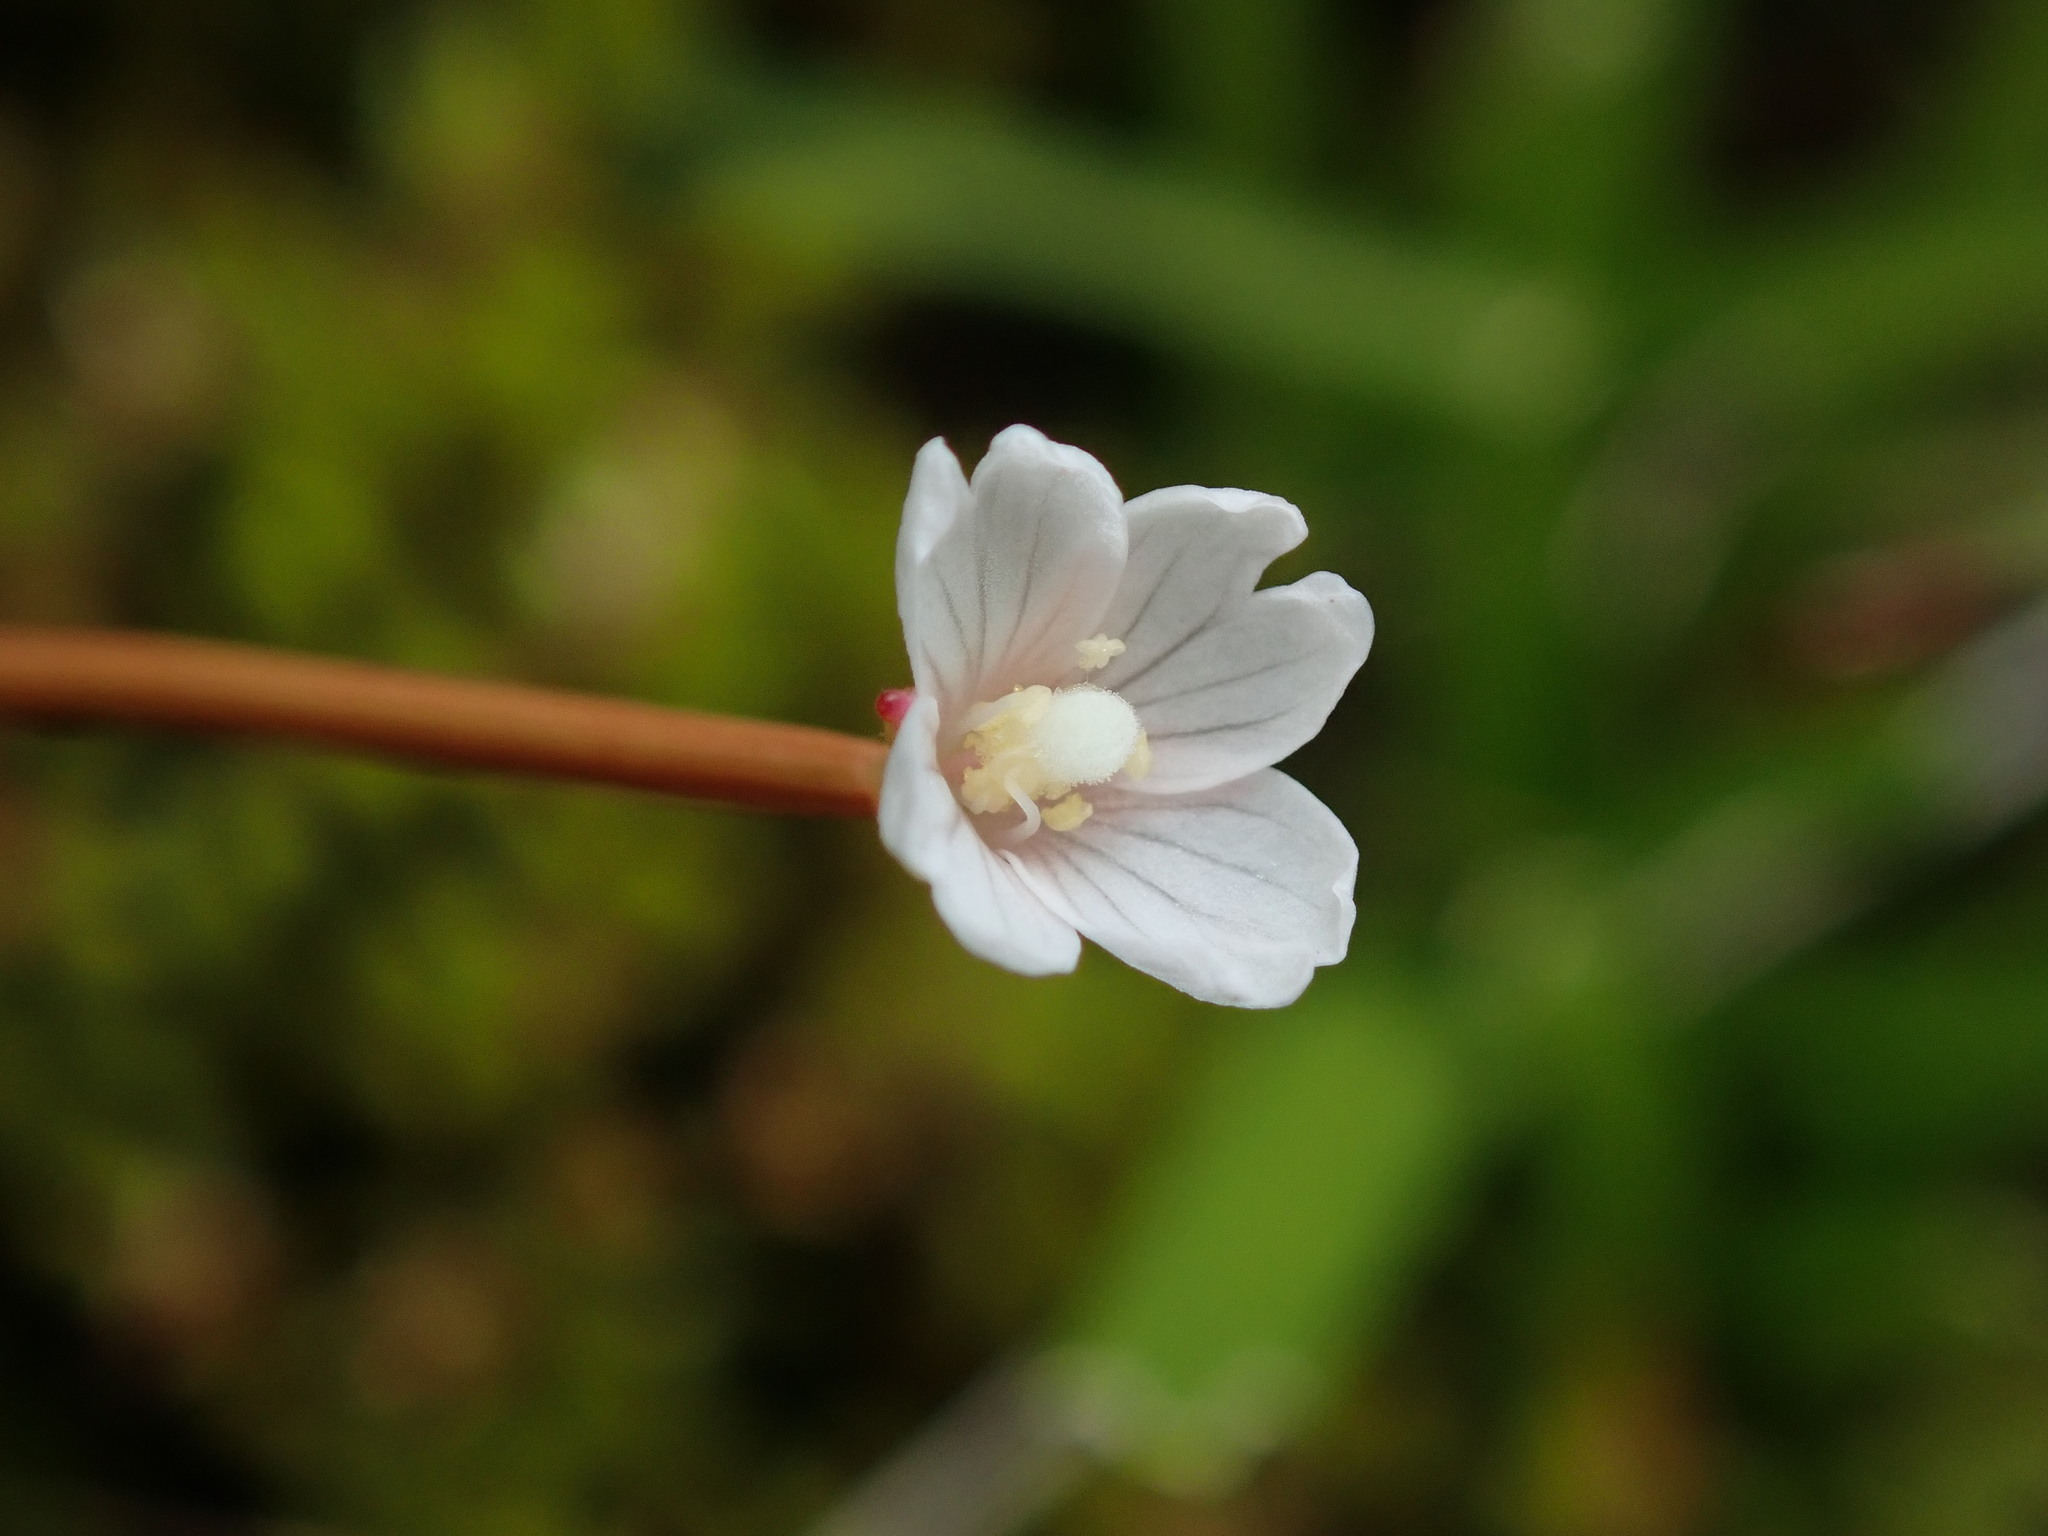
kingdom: Plantae
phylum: Tracheophyta
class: Magnoliopsida
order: Myrtales
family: Onagraceae
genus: Epilobium
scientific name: Epilobium brunnescens
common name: New zealand willowherb
